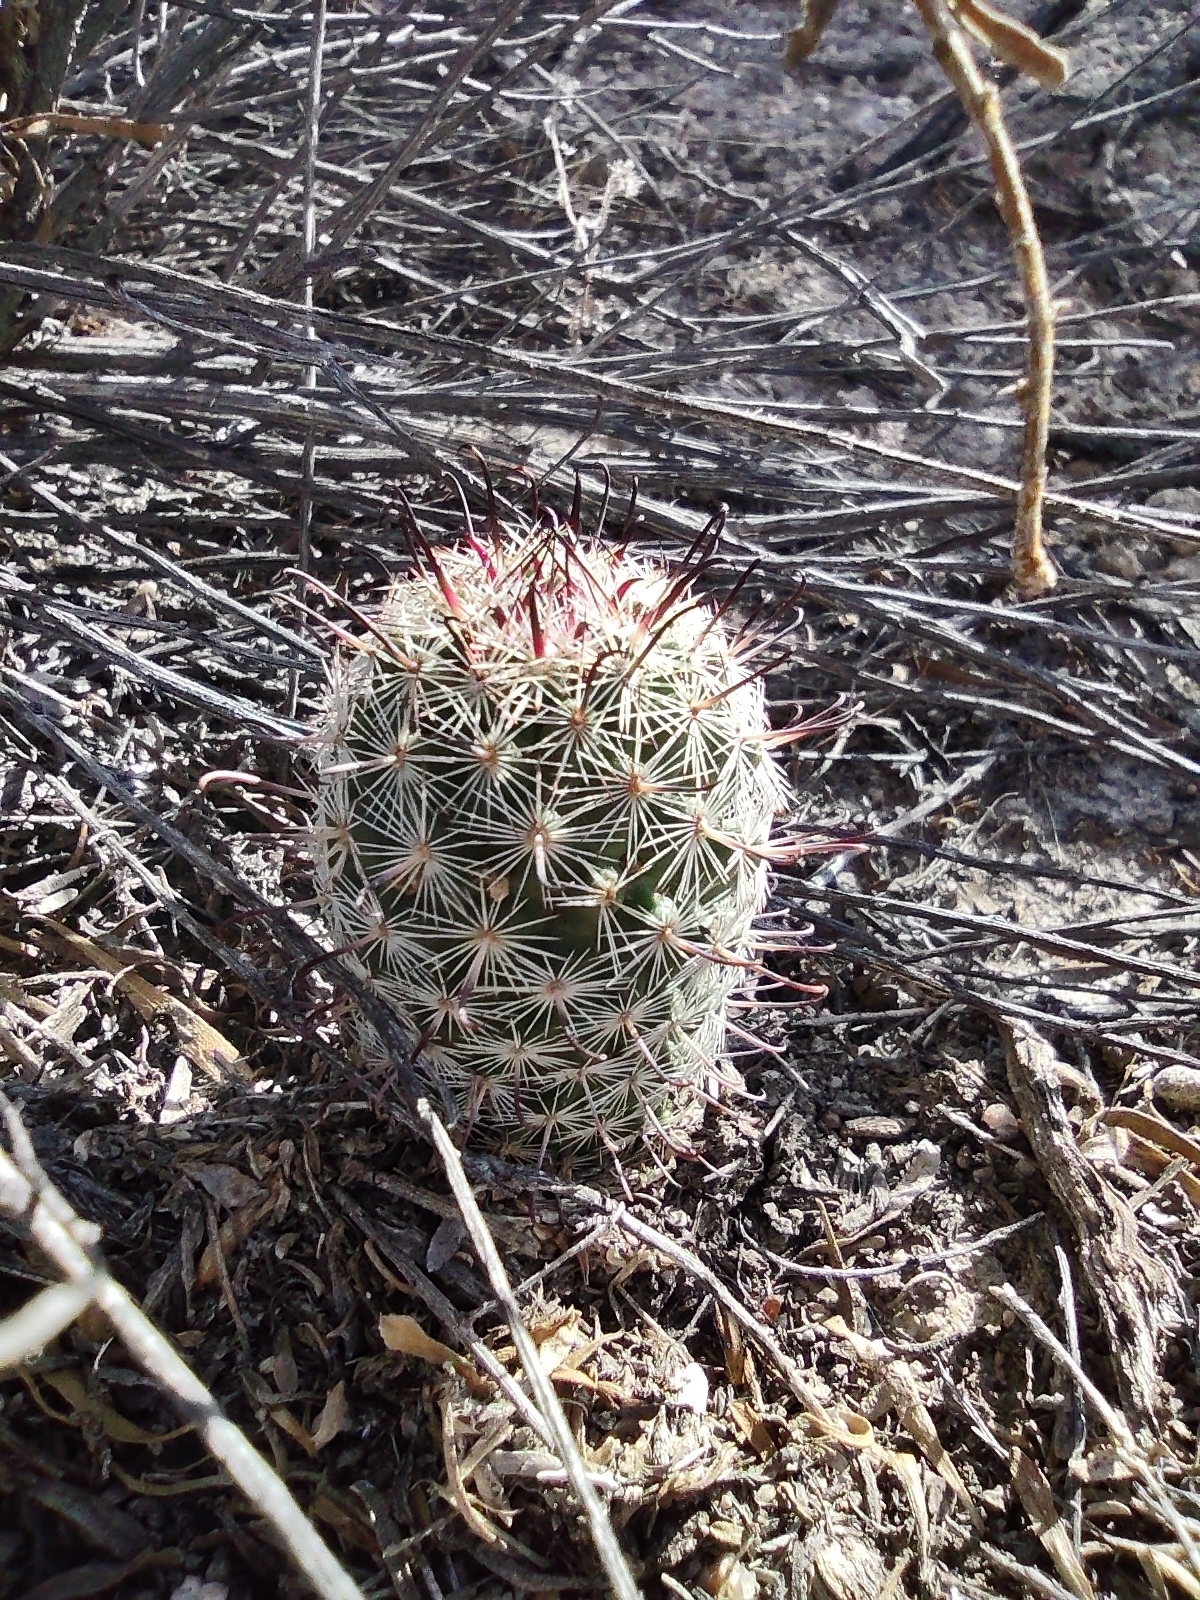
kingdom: Plantae
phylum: Tracheophyta
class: Magnoliopsida
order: Caryophyllales
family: Cactaceae
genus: Cochemiea
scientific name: Cochemiea grahamii
